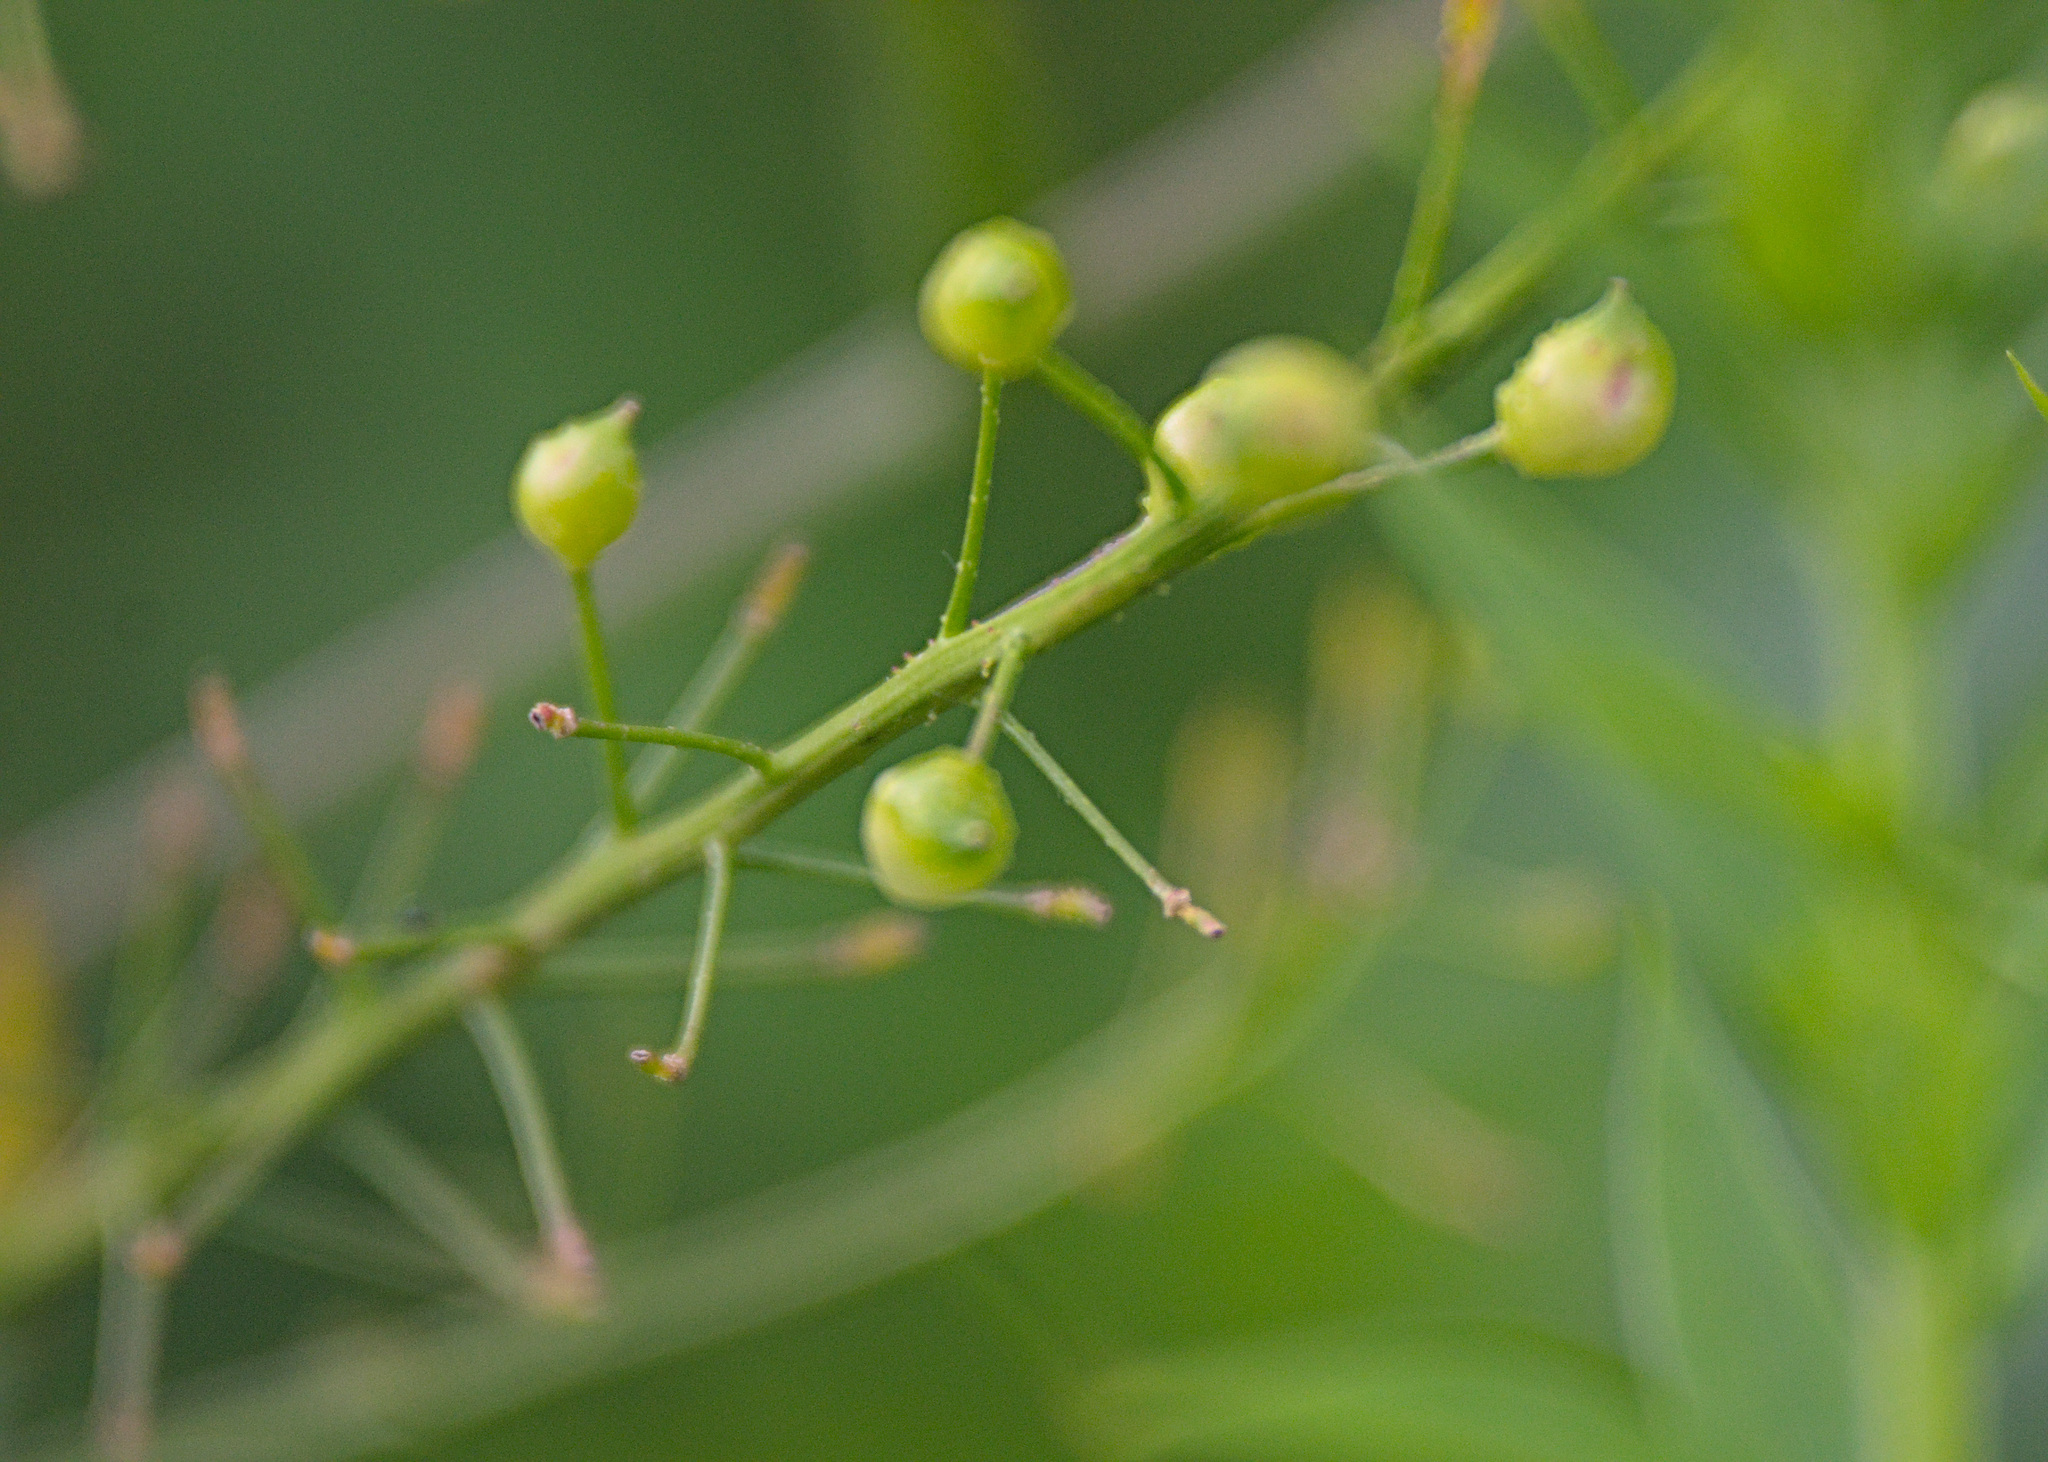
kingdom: Plantae
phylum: Tracheophyta
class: Magnoliopsida
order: Brassicales
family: Brassicaceae
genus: Bunias
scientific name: Bunias orientalis
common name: Warty-cabbage
